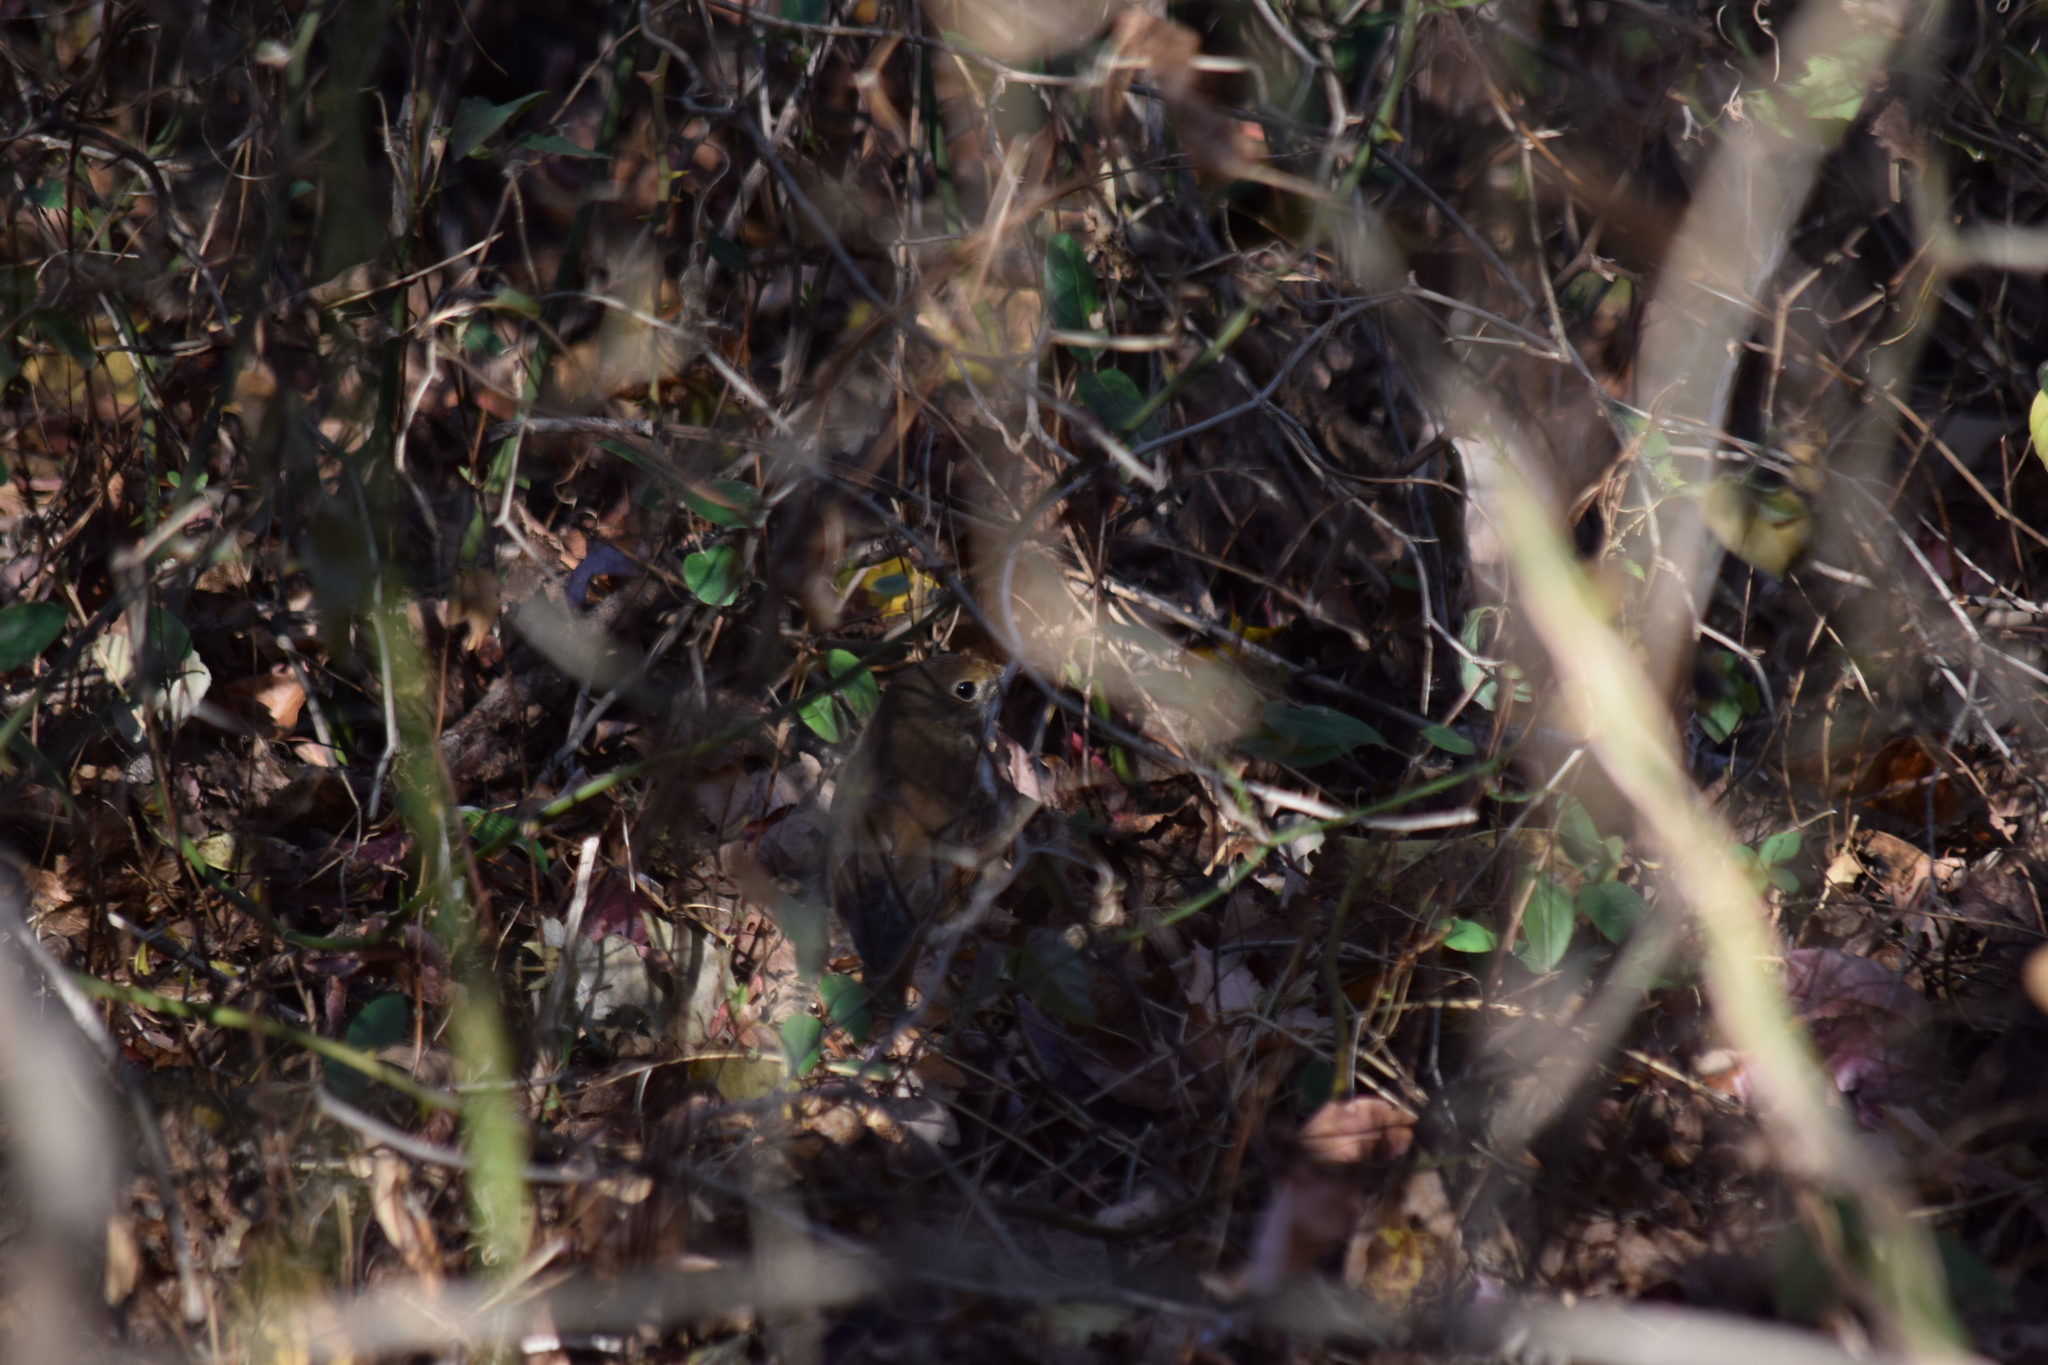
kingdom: Animalia
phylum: Chordata
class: Aves
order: Passeriformes
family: Turdidae
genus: Catharus
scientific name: Catharus guttatus
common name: Hermit thrush
